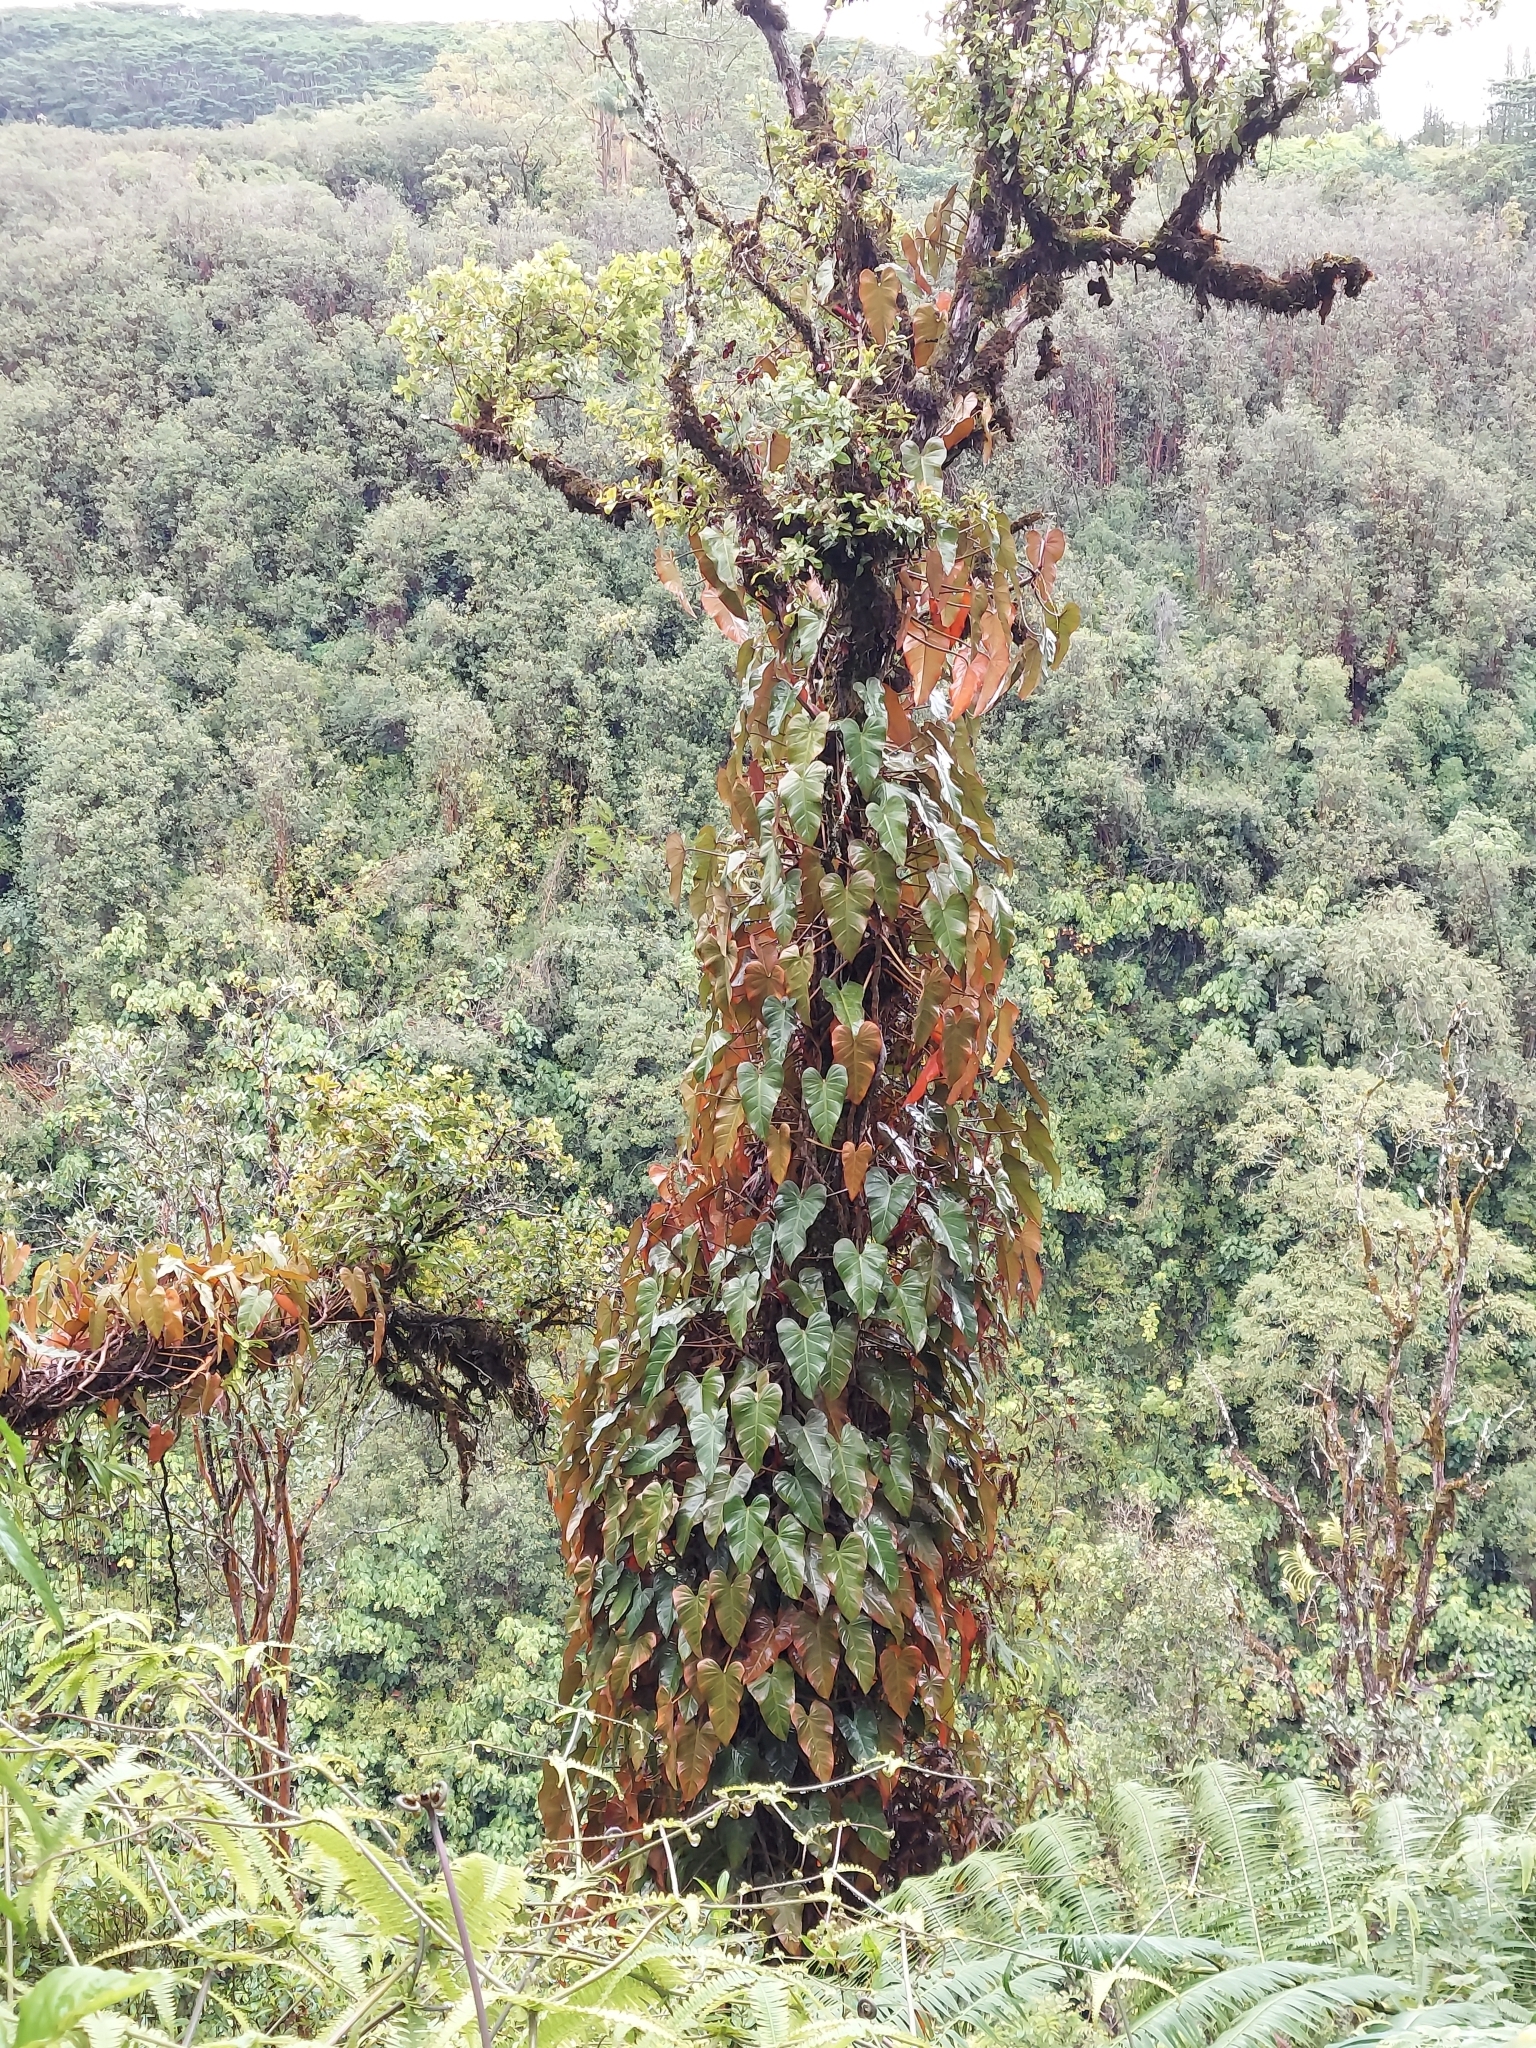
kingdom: Plantae
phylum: Tracheophyta
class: Liliopsida
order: Alismatales
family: Araceae
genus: Philodendron
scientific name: Philodendron erubescens
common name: Philodendron
